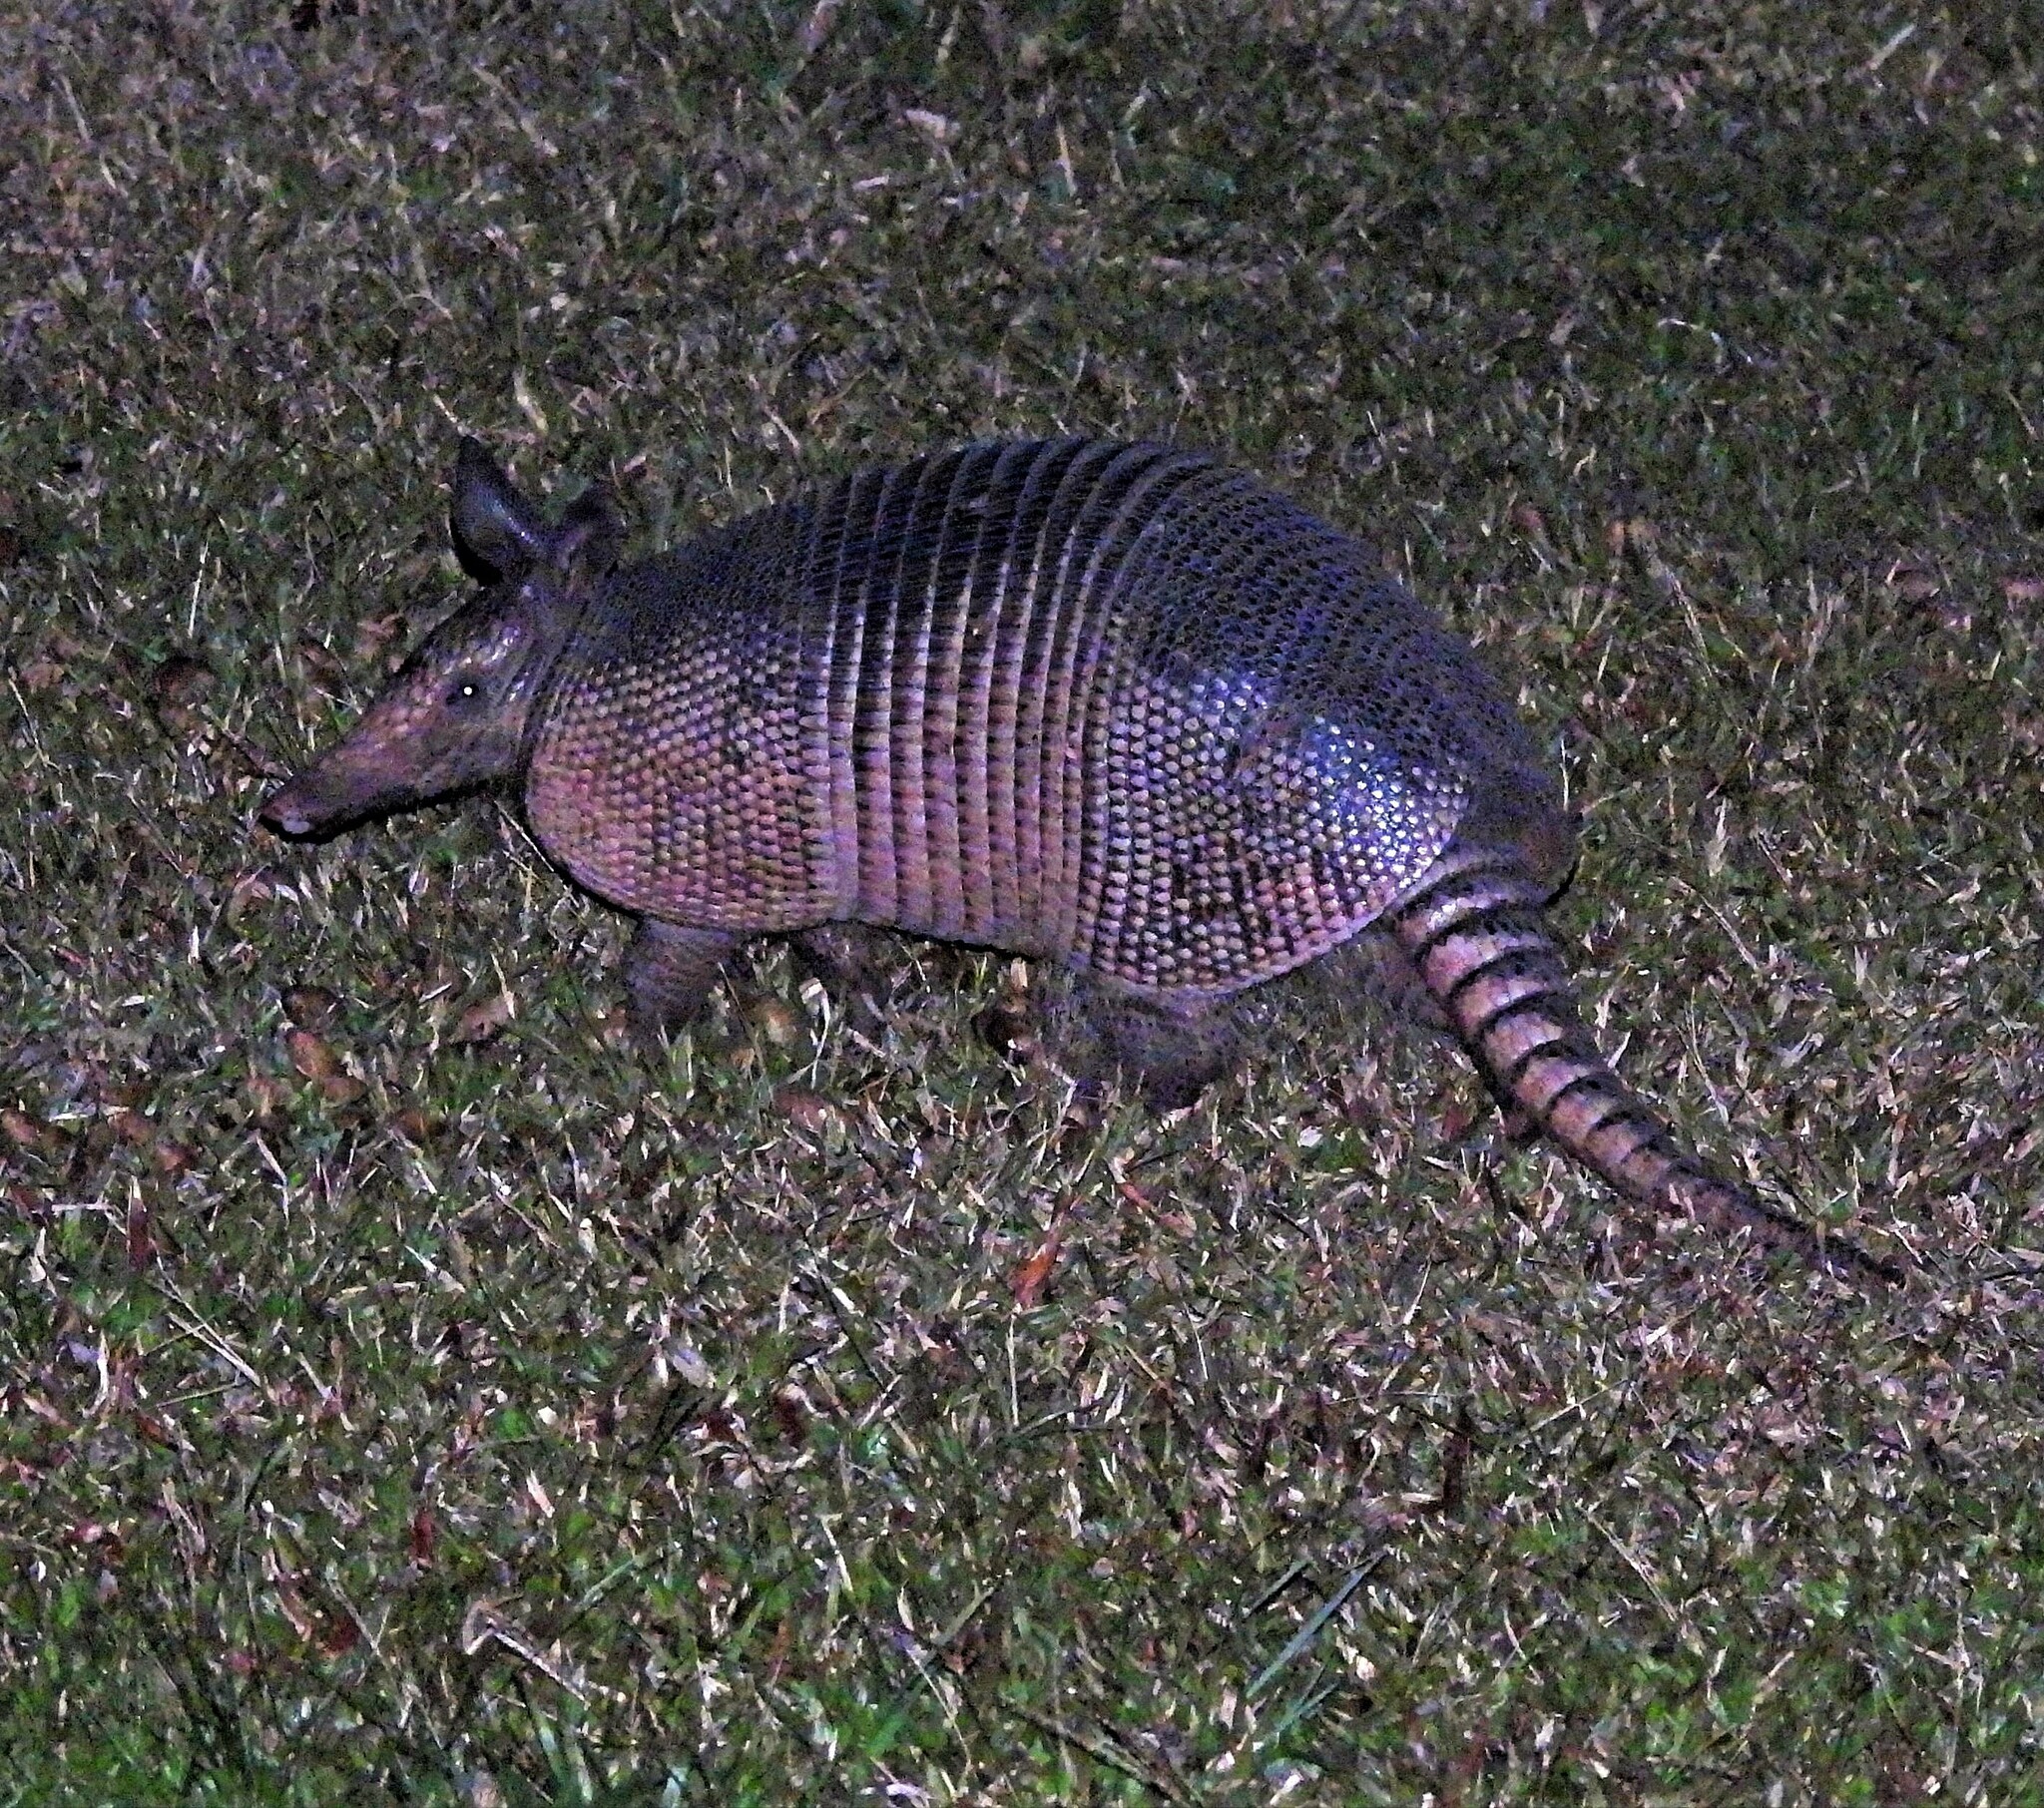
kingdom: Animalia
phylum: Chordata
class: Mammalia
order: Cingulata
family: Dasypodidae
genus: Dasypus
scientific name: Dasypus novemcinctus
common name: Nine-banded armadillo
